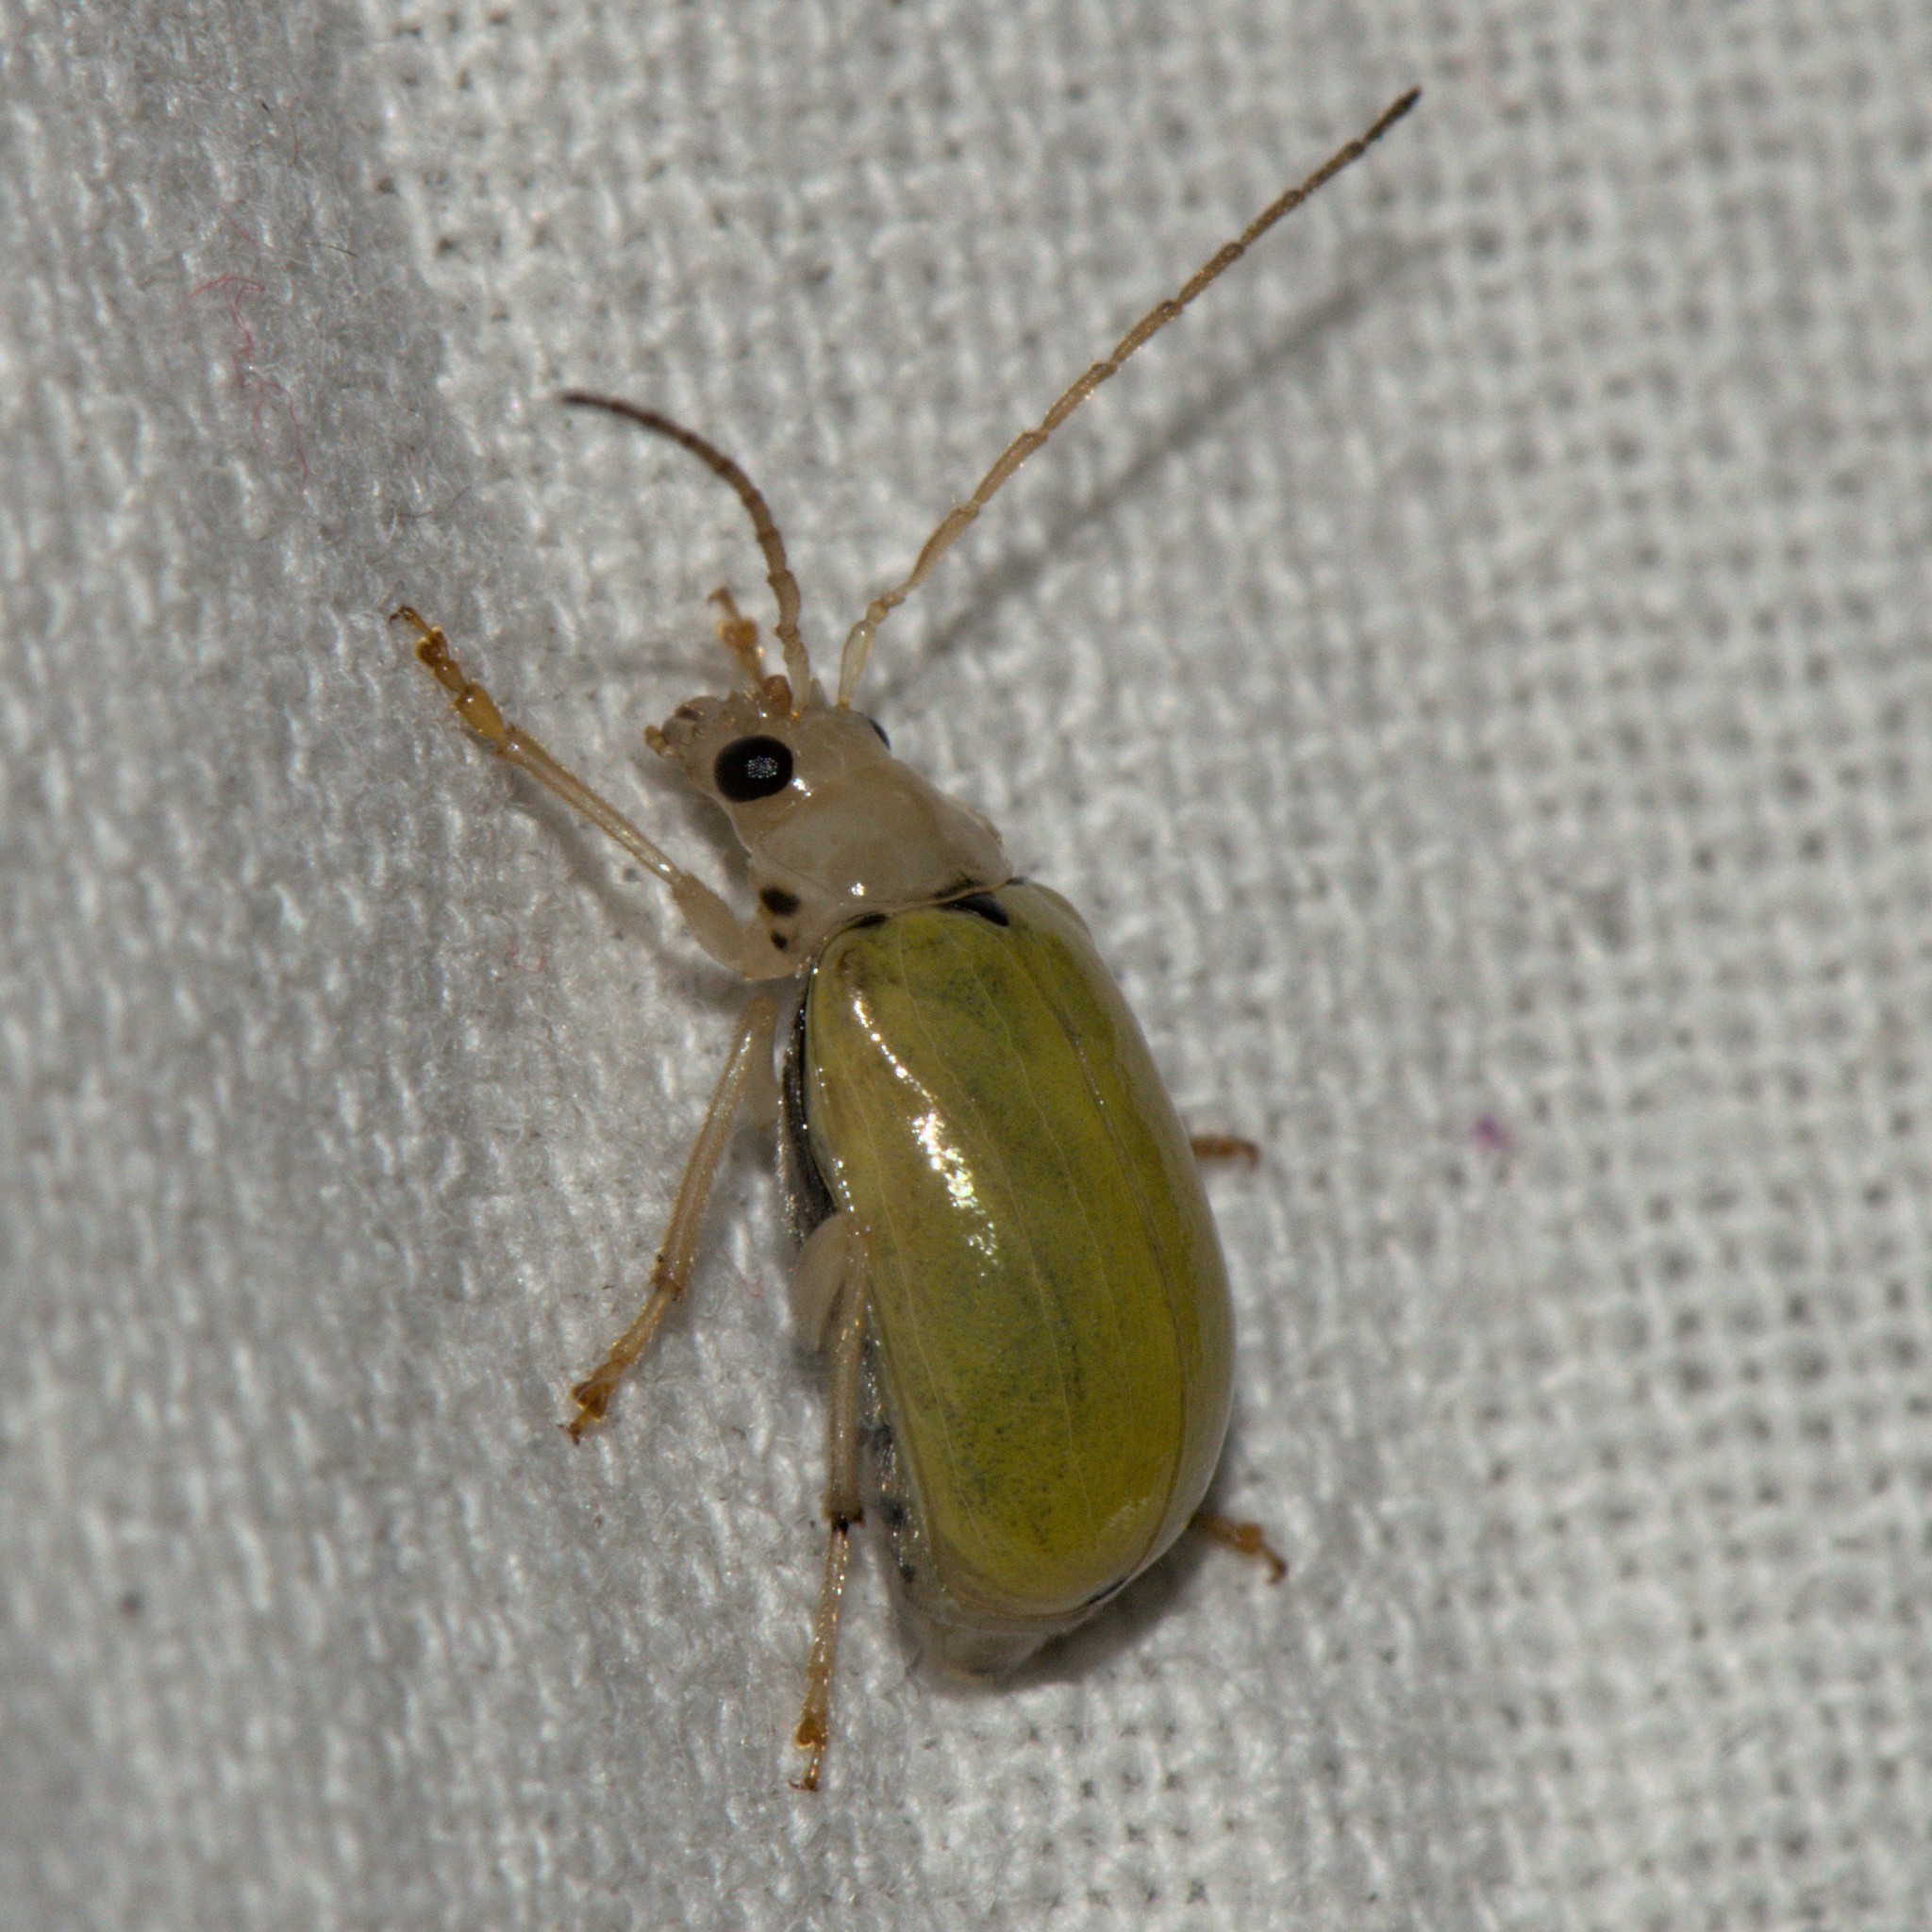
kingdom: Animalia
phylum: Arthropoda
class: Insecta
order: Coleoptera
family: Chrysomelidae
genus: Macrima
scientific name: Macrima
